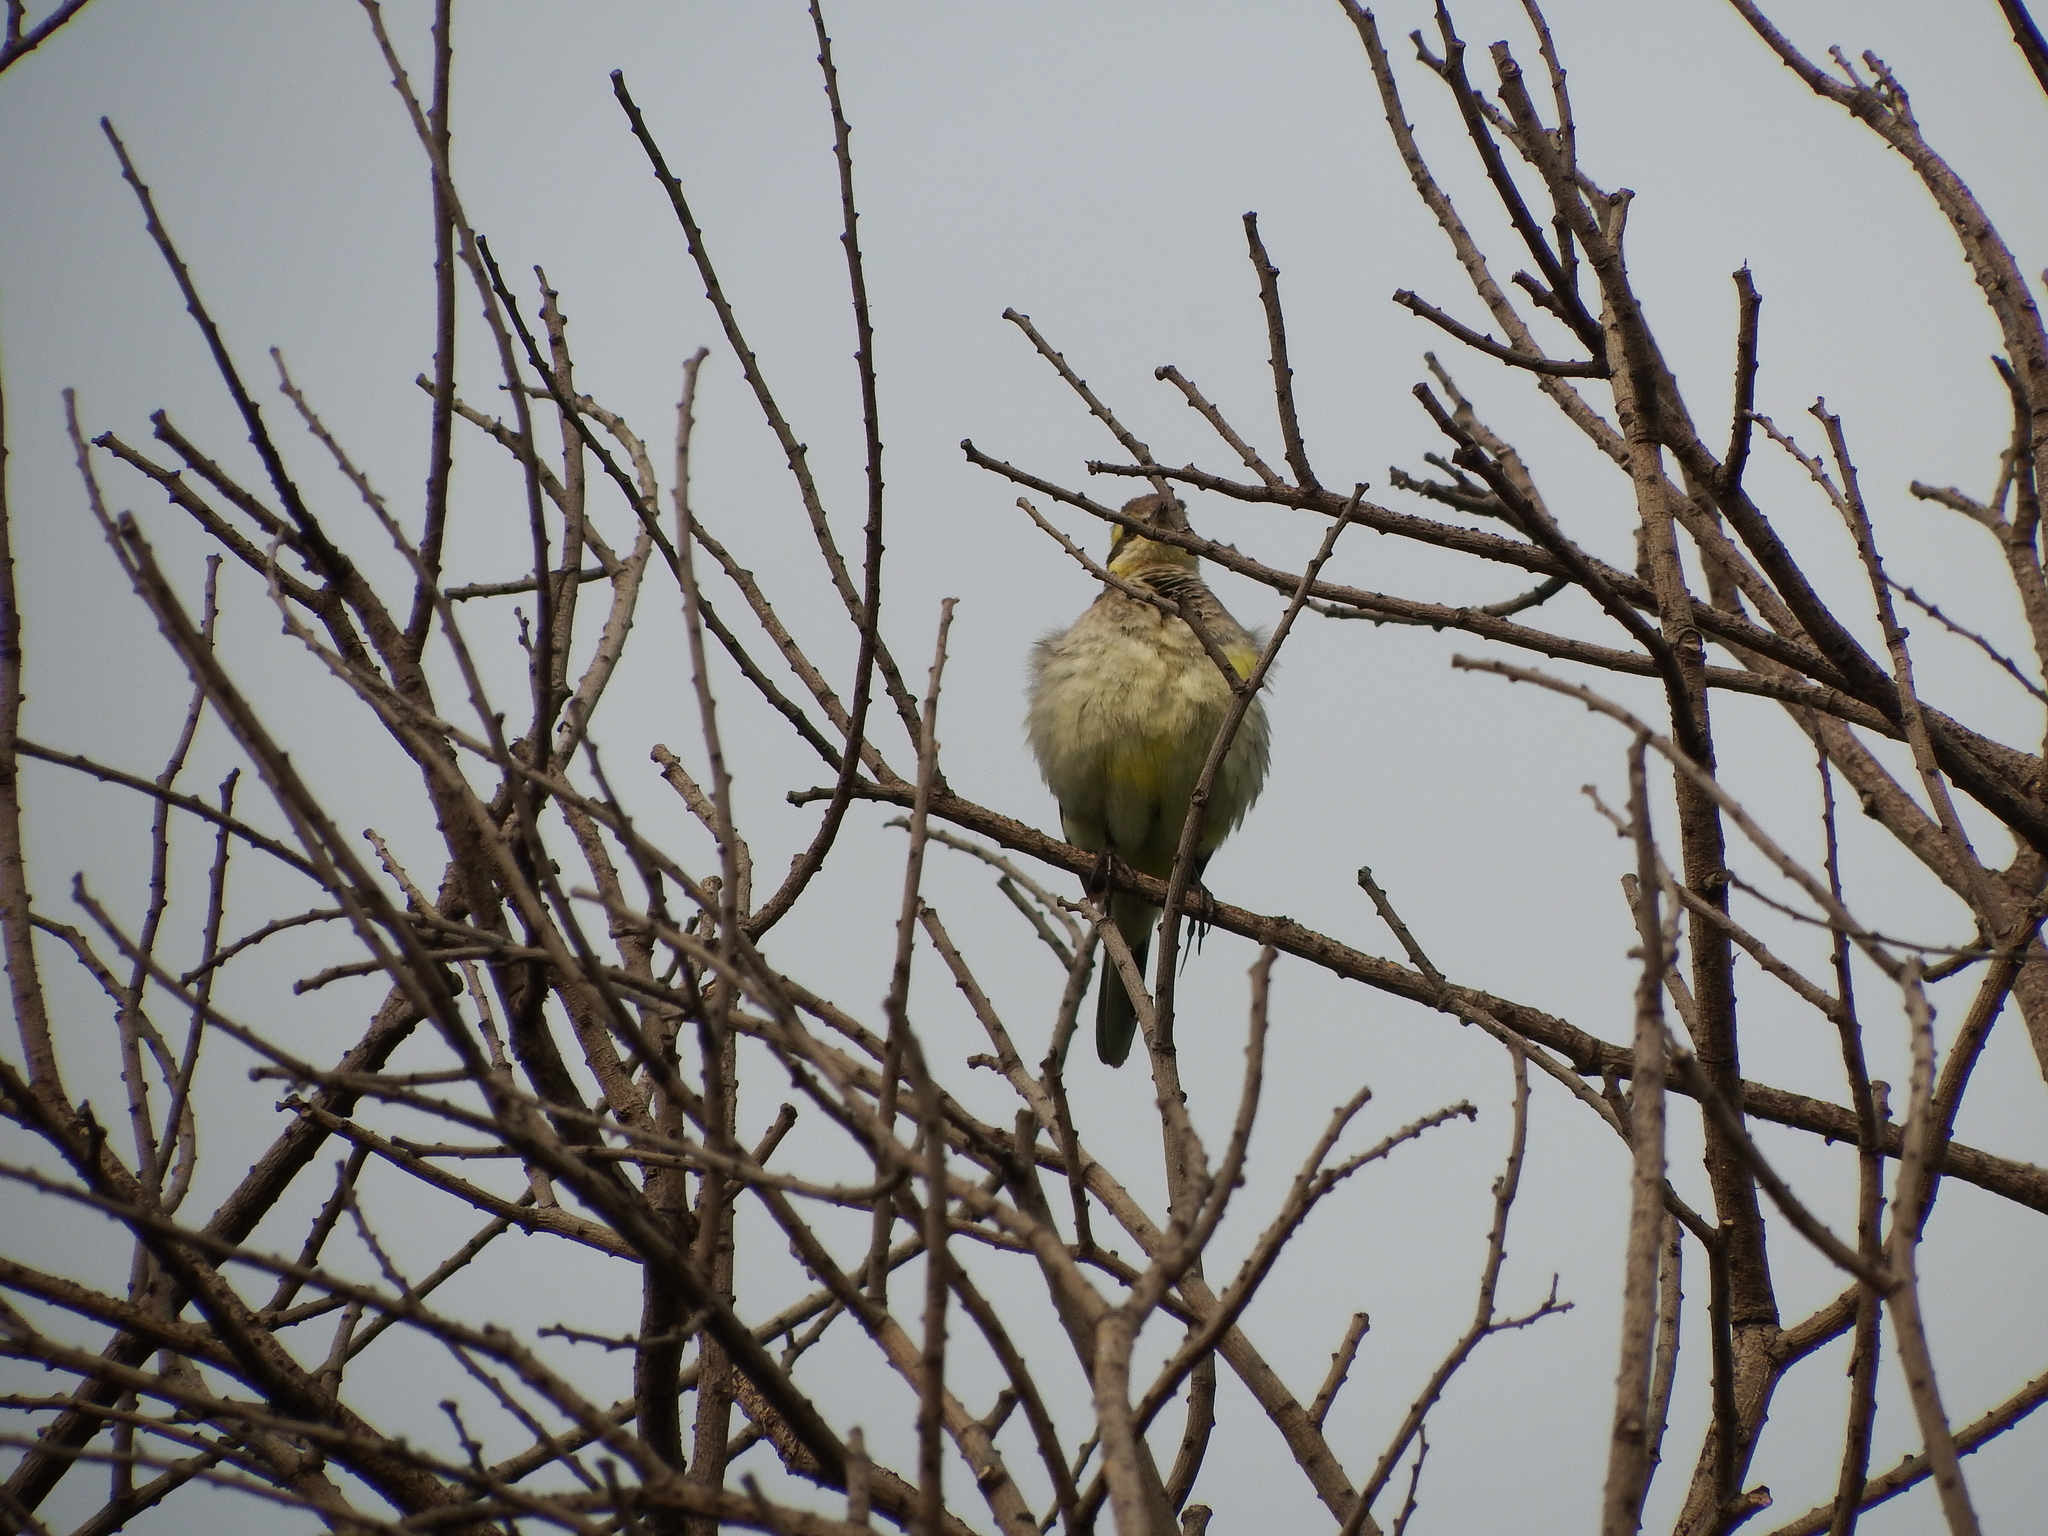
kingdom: Animalia
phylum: Chordata
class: Aves
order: Passeriformes
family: Motacillidae
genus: Motacilla
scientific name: Motacilla tschutschensis
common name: Eastern yellow wagtail
